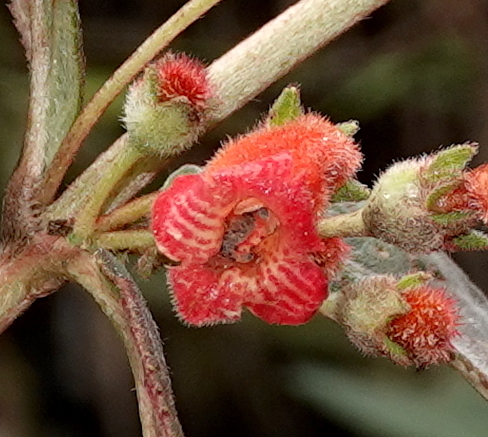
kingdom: Plantae
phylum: Tracheophyta
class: Magnoliopsida
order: Lamiales
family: Gesneriaceae
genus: Kohleria
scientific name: Kohleria spicata
